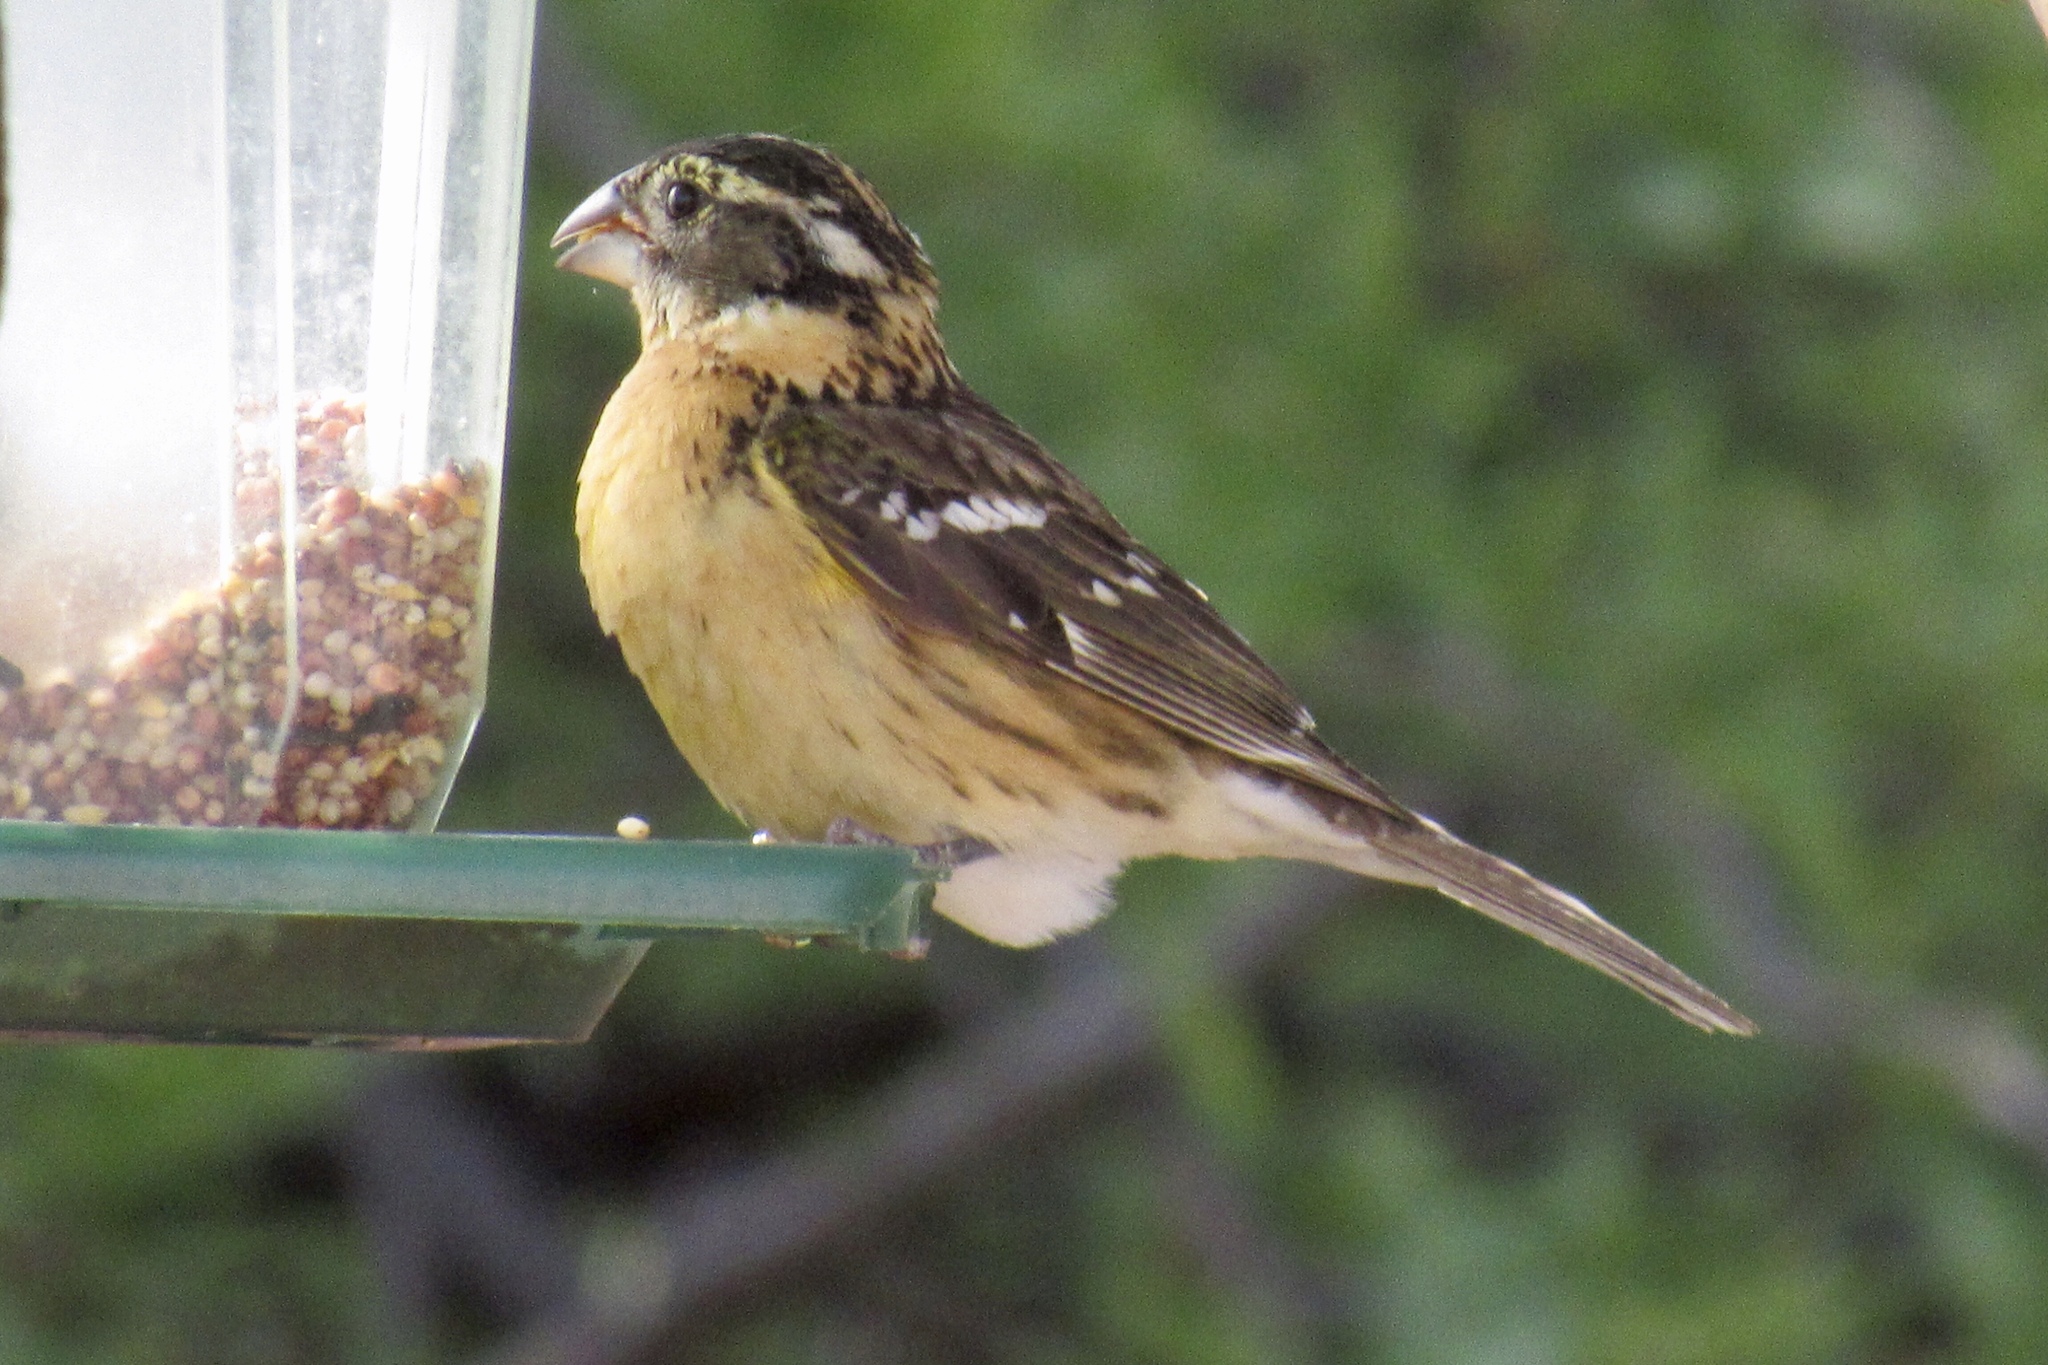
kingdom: Animalia
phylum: Chordata
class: Aves
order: Passeriformes
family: Cardinalidae
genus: Pheucticus
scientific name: Pheucticus melanocephalus
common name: Black-headed grosbeak
